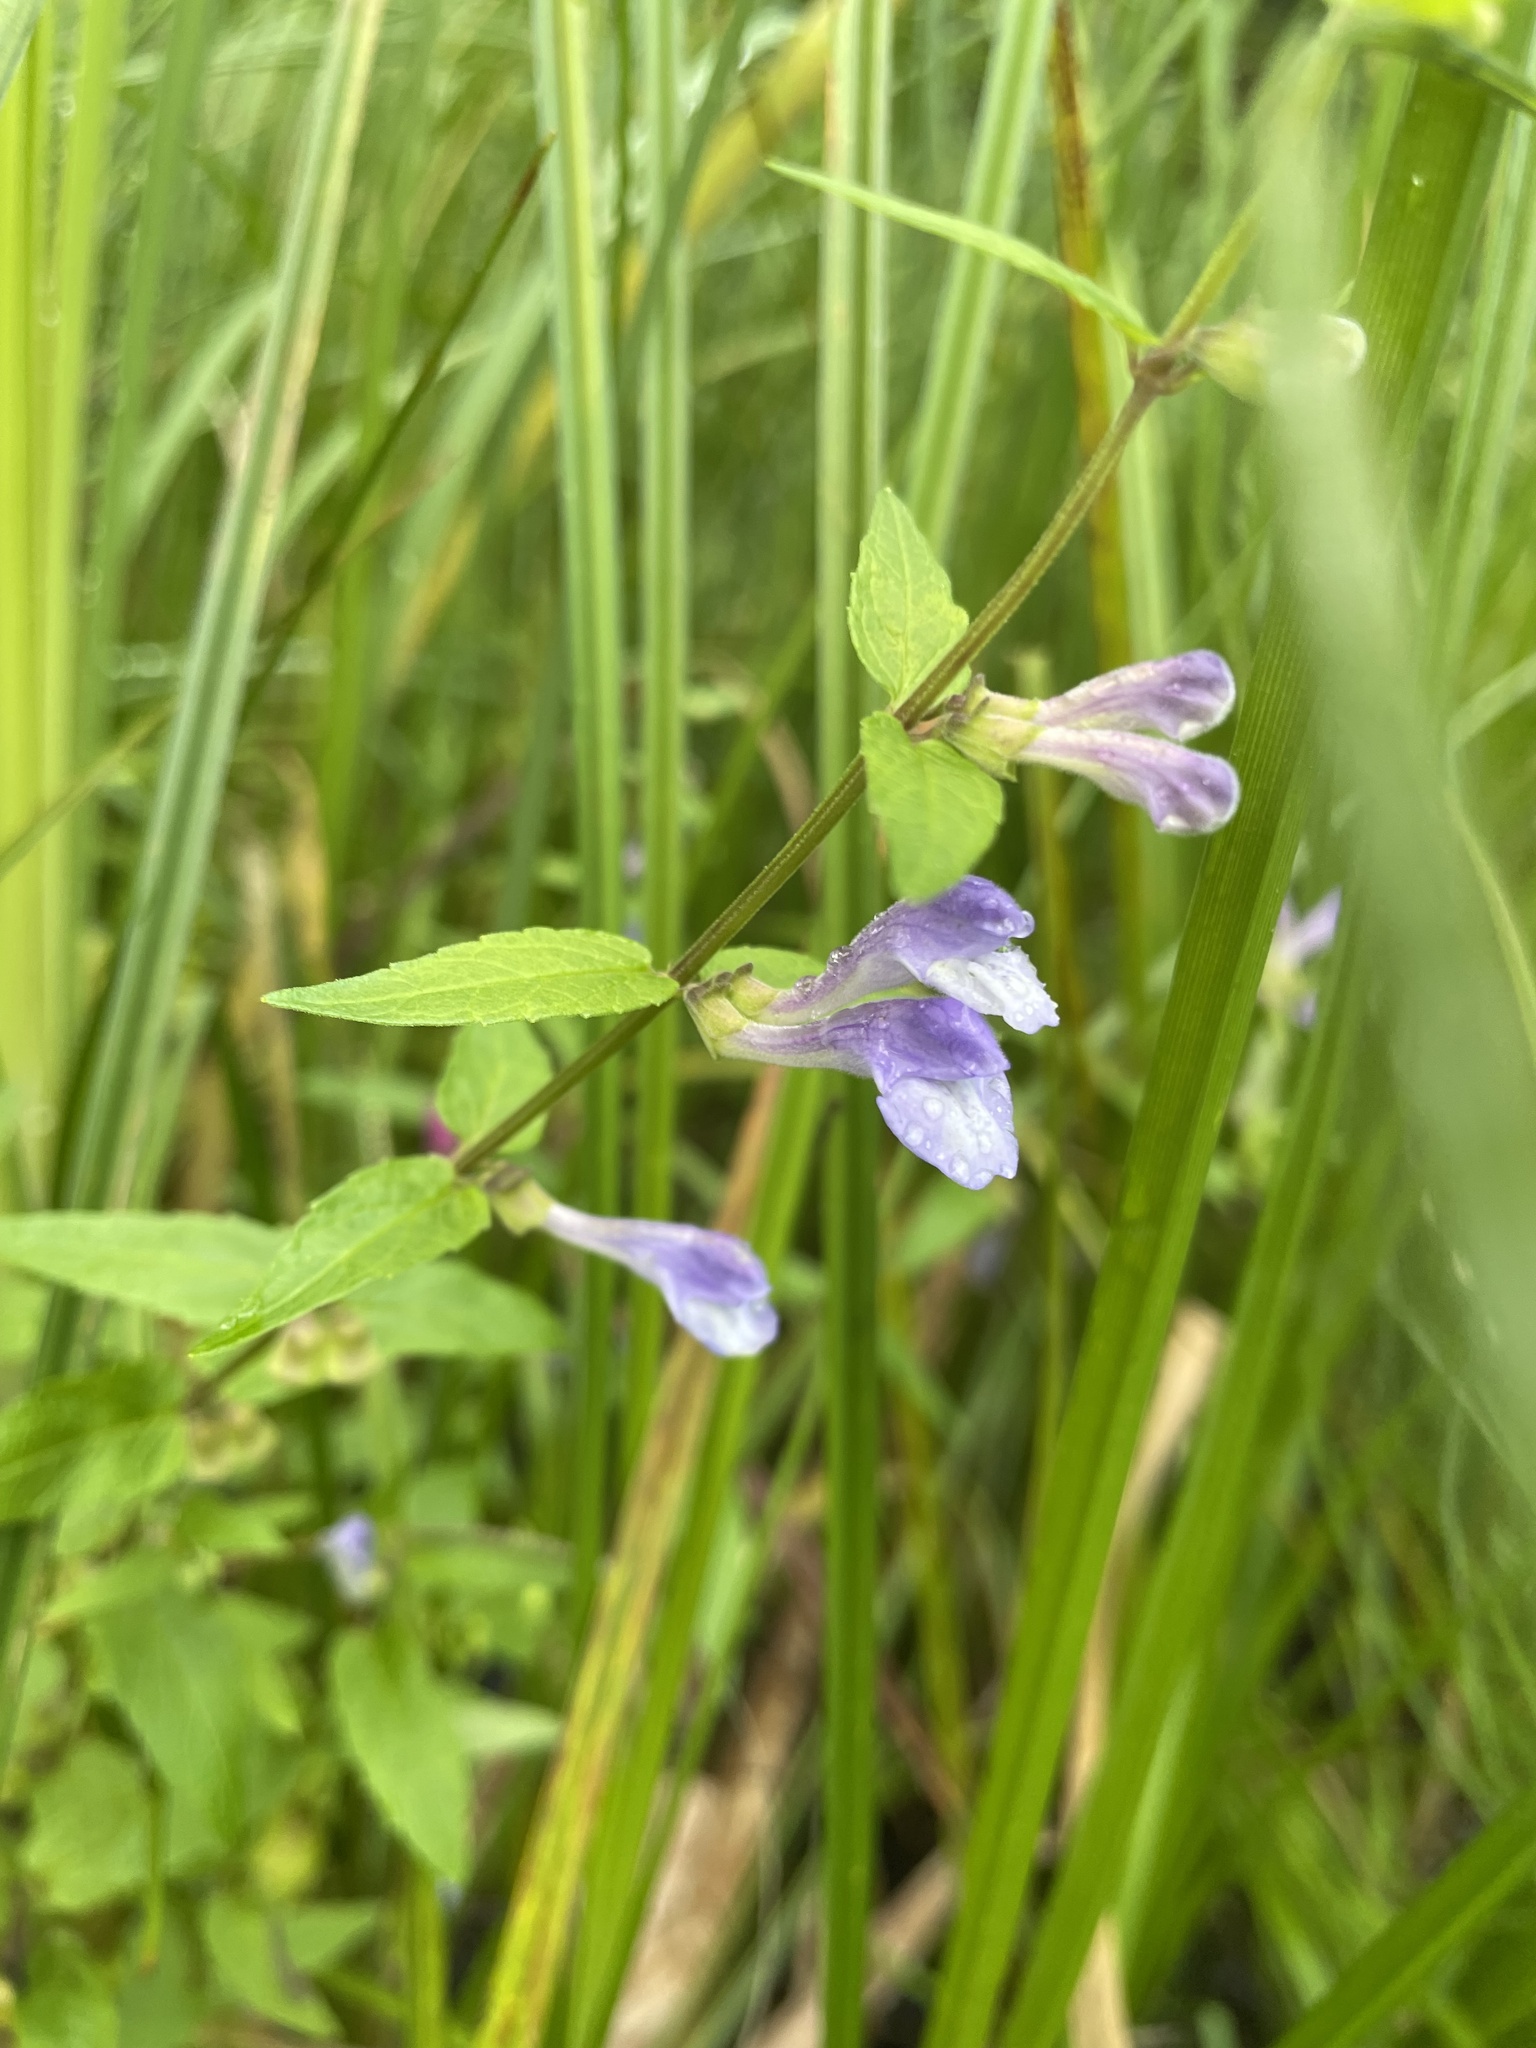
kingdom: Plantae
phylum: Tracheophyta
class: Magnoliopsida
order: Lamiales
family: Lamiaceae
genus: Scutellaria
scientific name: Scutellaria galericulata
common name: Skullcap
